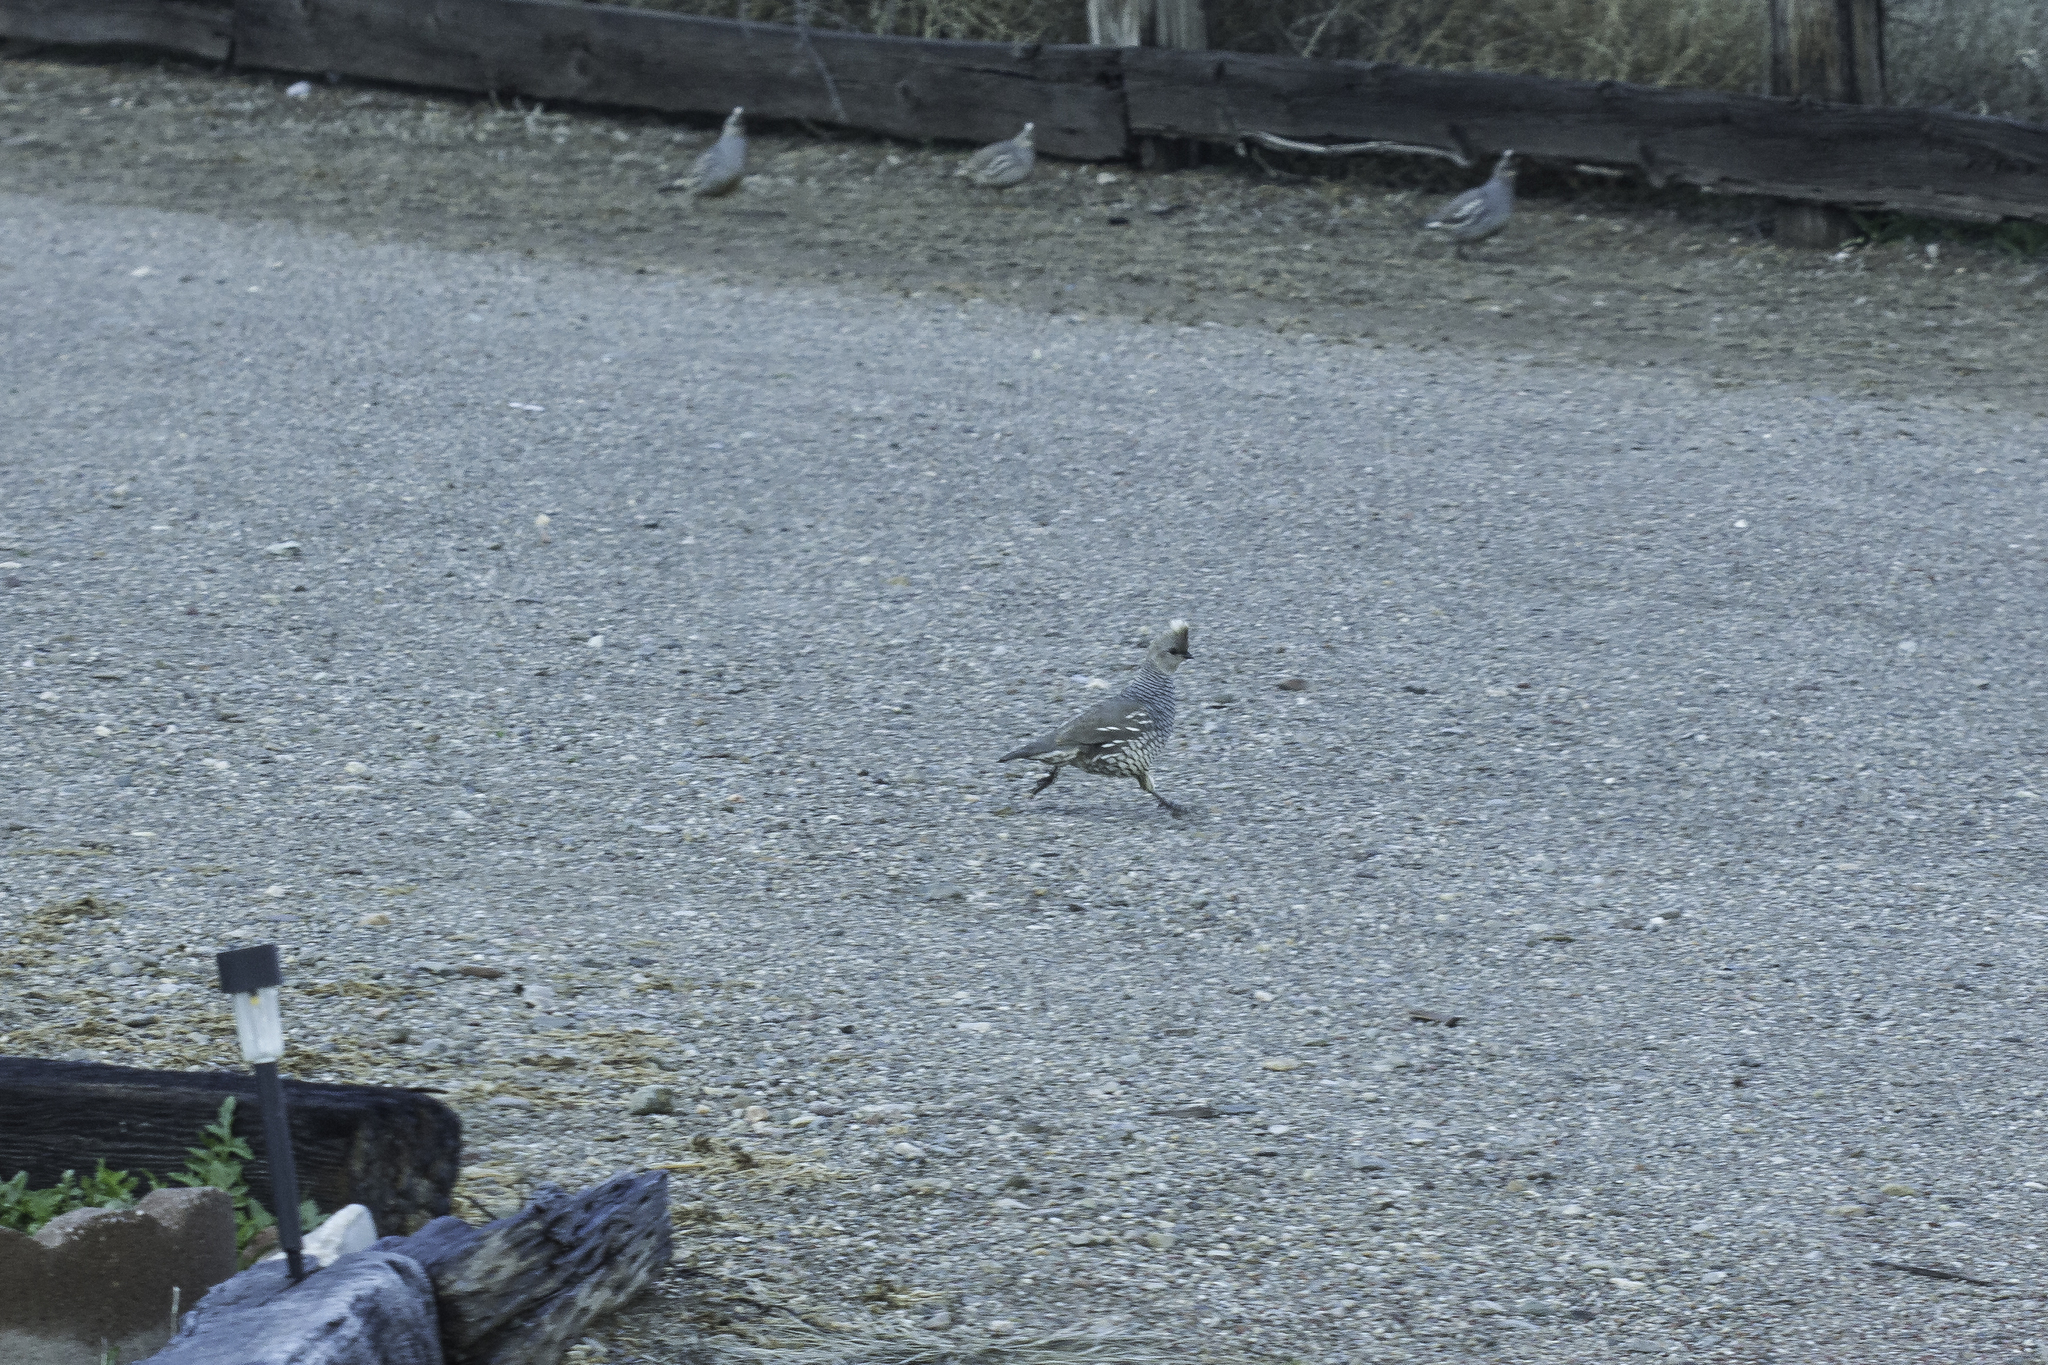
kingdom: Animalia
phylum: Chordata
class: Aves
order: Galliformes
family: Odontophoridae
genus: Callipepla
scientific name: Callipepla squamata
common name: Scaled quail
